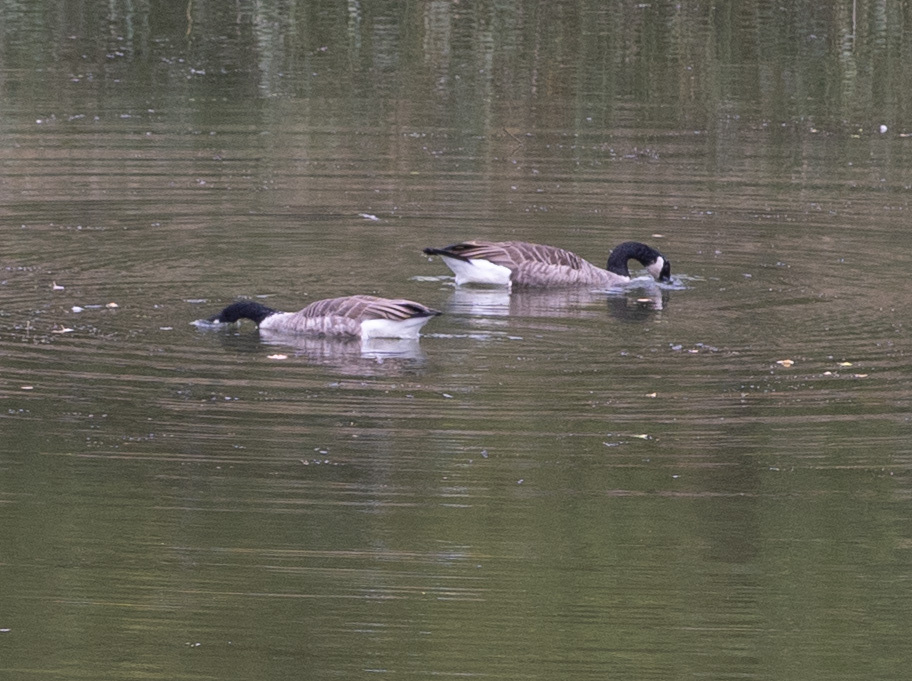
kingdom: Animalia
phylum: Chordata
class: Aves
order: Anseriformes
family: Anatidae
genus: Branta
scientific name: Branta canadensis
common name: Canada goose
